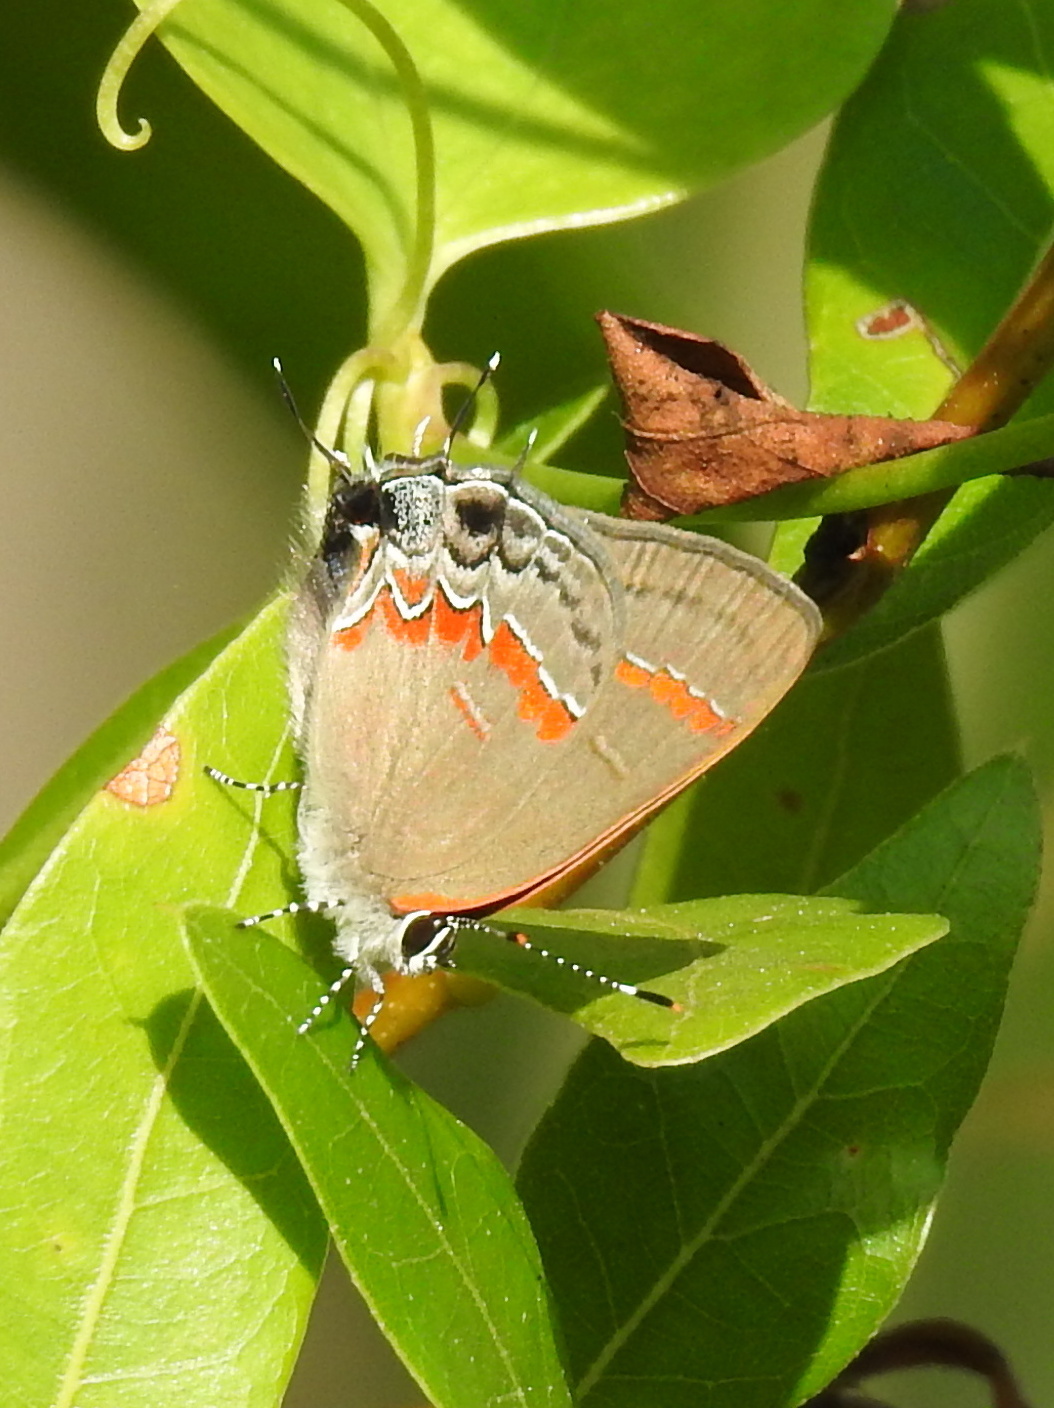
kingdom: Animalia
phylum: Arthropoda
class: Insecta
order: Lepidoptera
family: Lycaenidae
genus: Calycopis
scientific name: Calycopis cecrops
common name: Red-banded hairstreak
